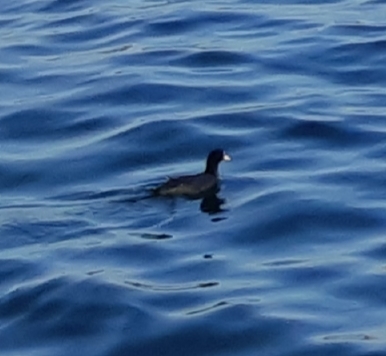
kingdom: Animalia
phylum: Chordata
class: Aves
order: Gruiformes
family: Rallidae
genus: Fulica
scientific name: Fulica atra
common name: Eurasian coot
